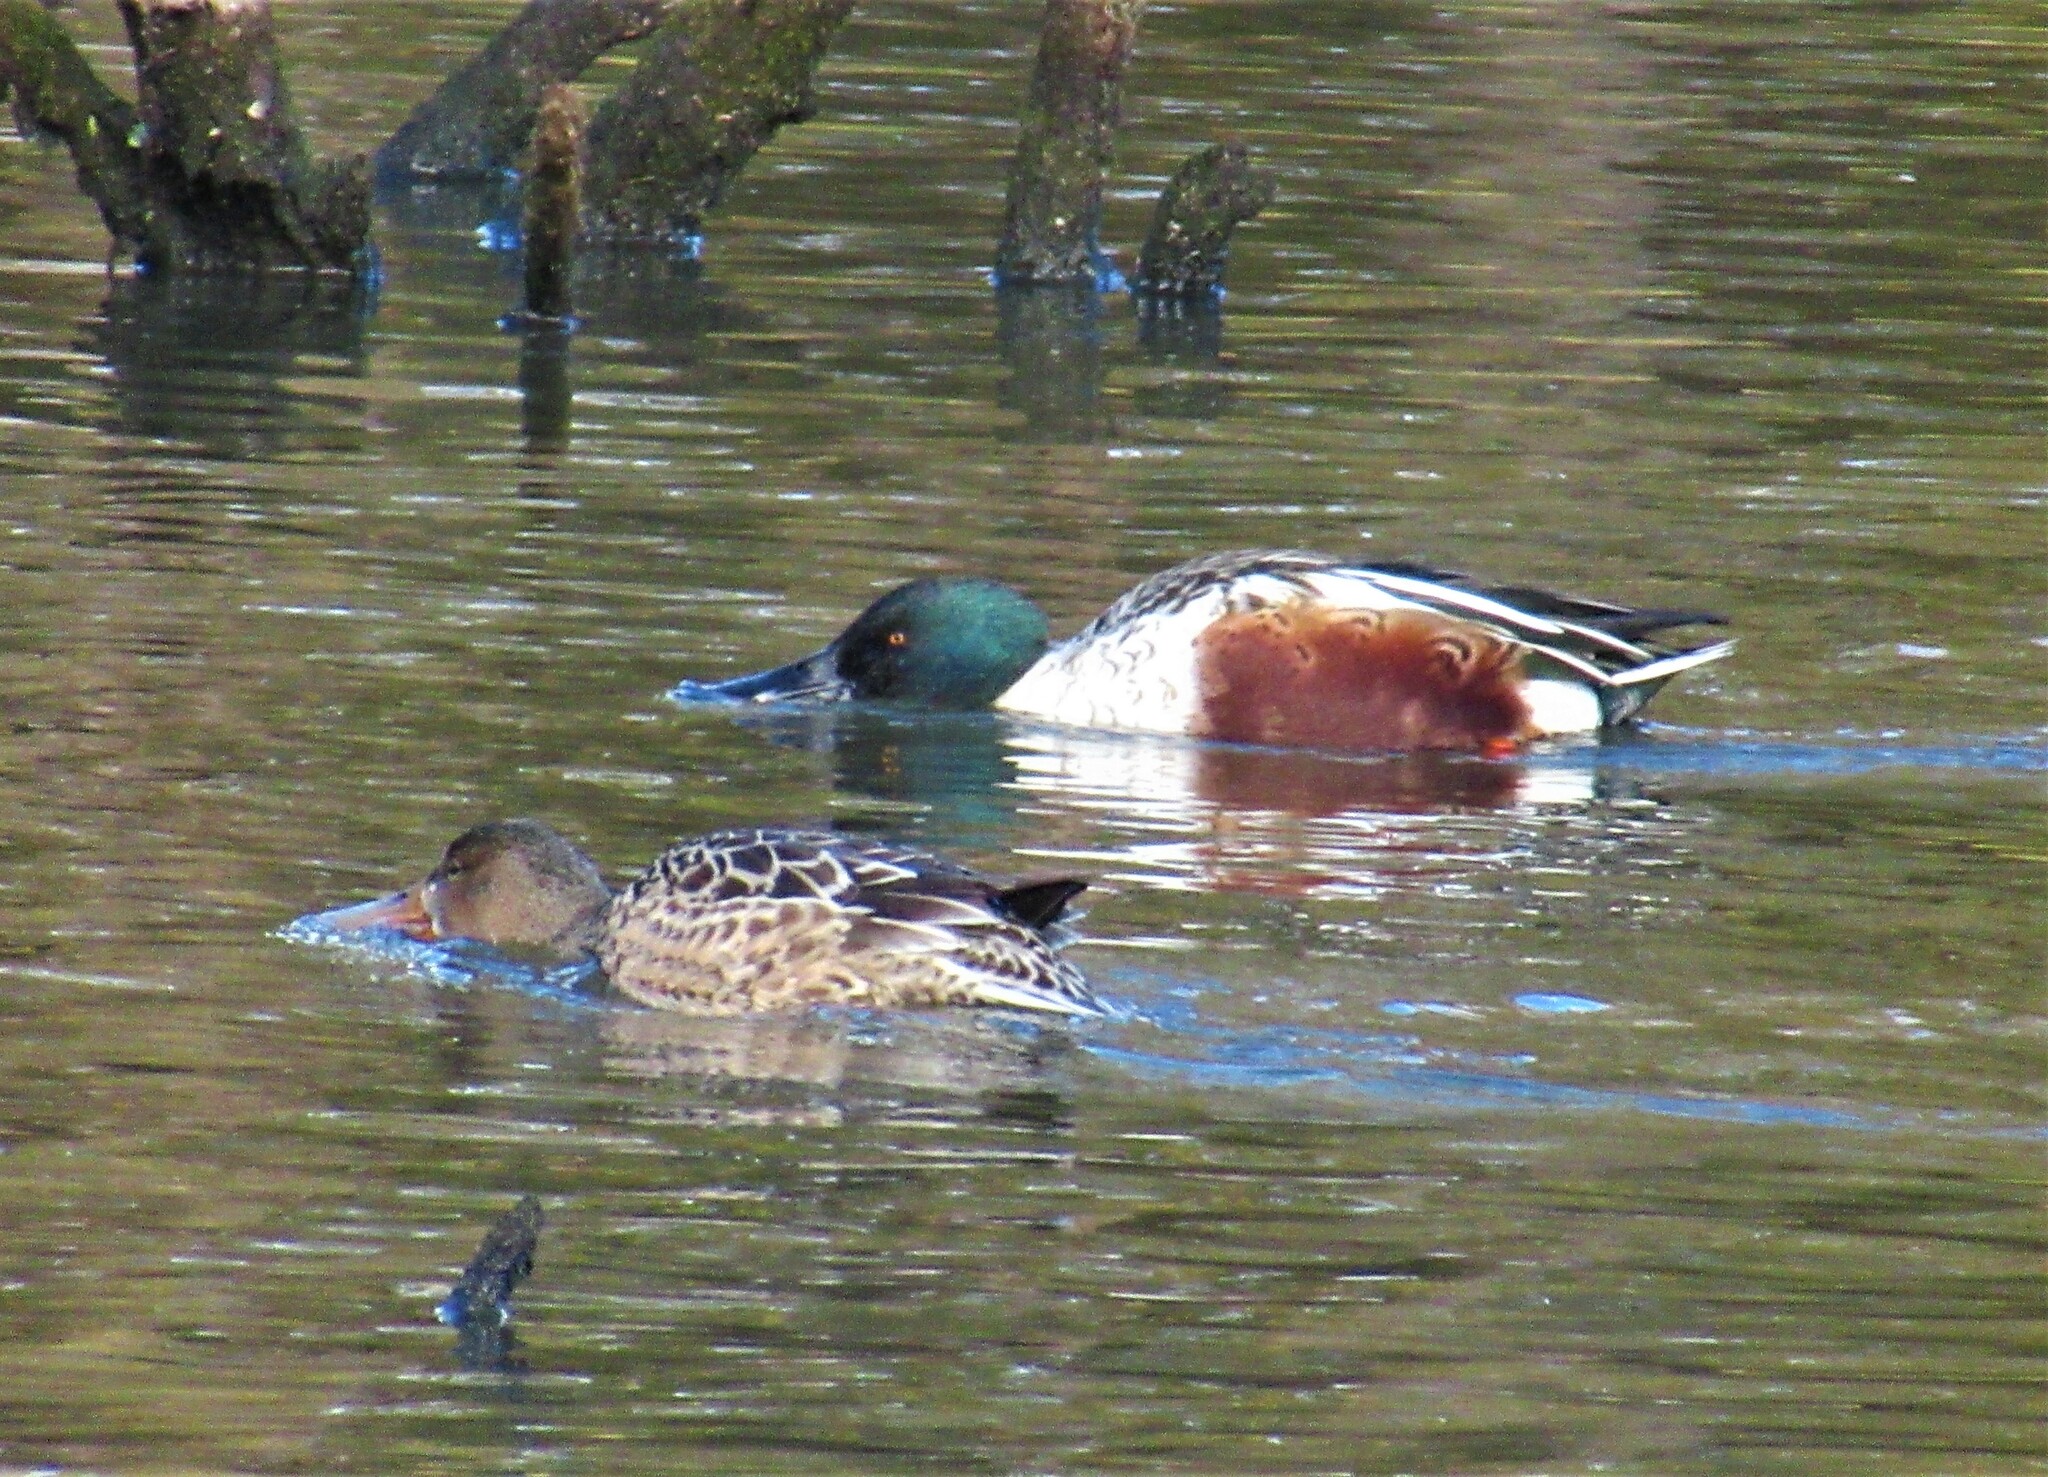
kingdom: Animalia
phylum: Chordata
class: Aves
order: Anseriformes
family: Anatidae
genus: Spatula
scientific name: Spatula clypeata
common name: Northern shoveler
